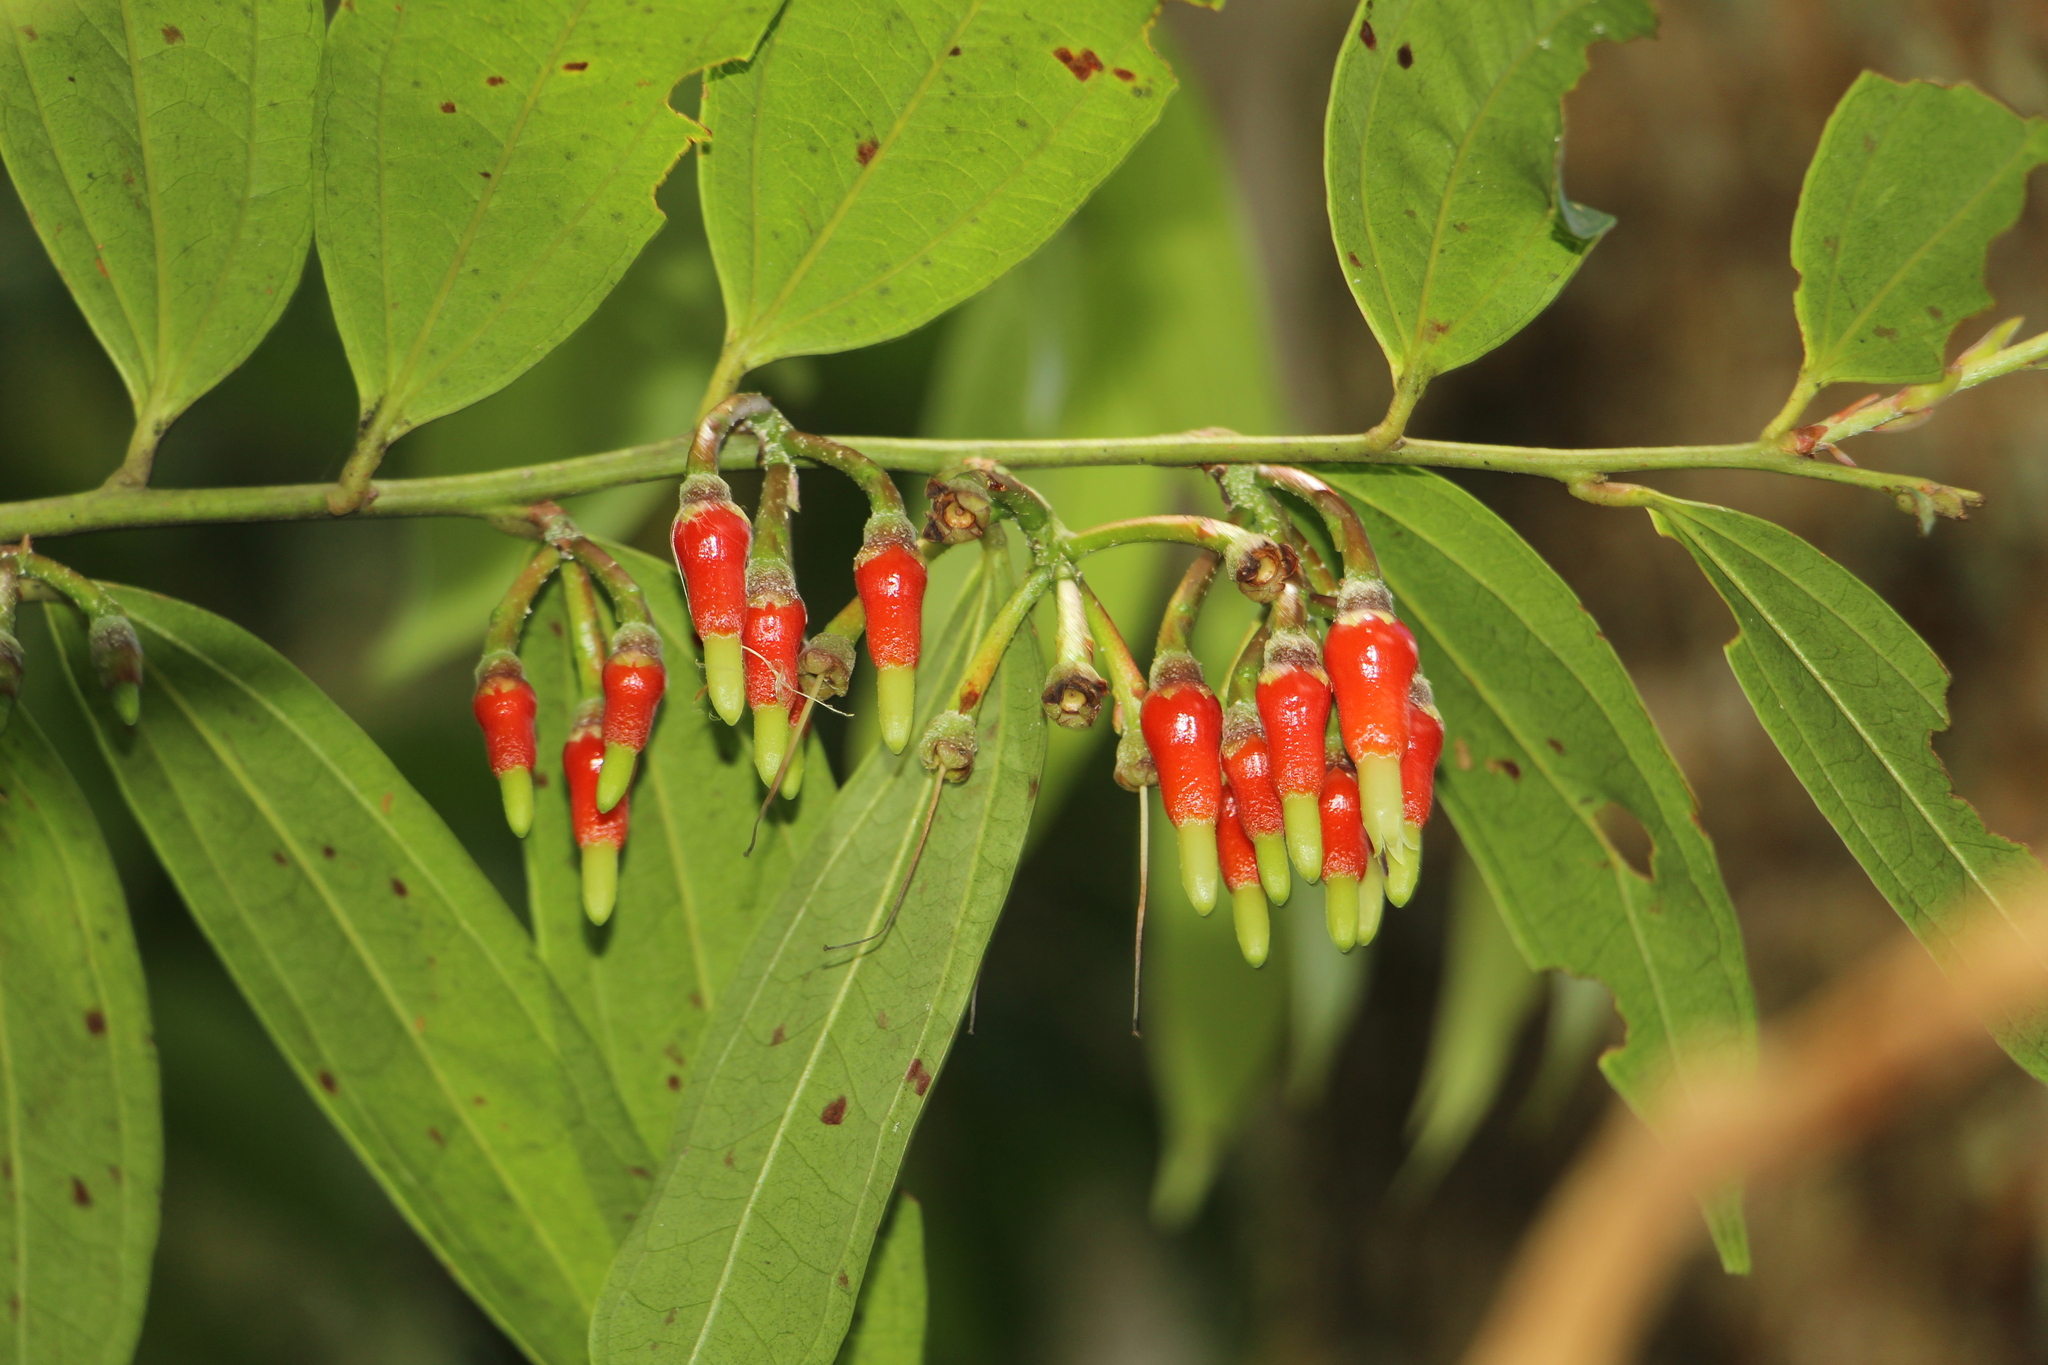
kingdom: Plantae
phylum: Tracheophyta
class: Magnoliopsida
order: Ericales
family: Ericaceae
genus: Psammisia
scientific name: Psammisia penduliflora
